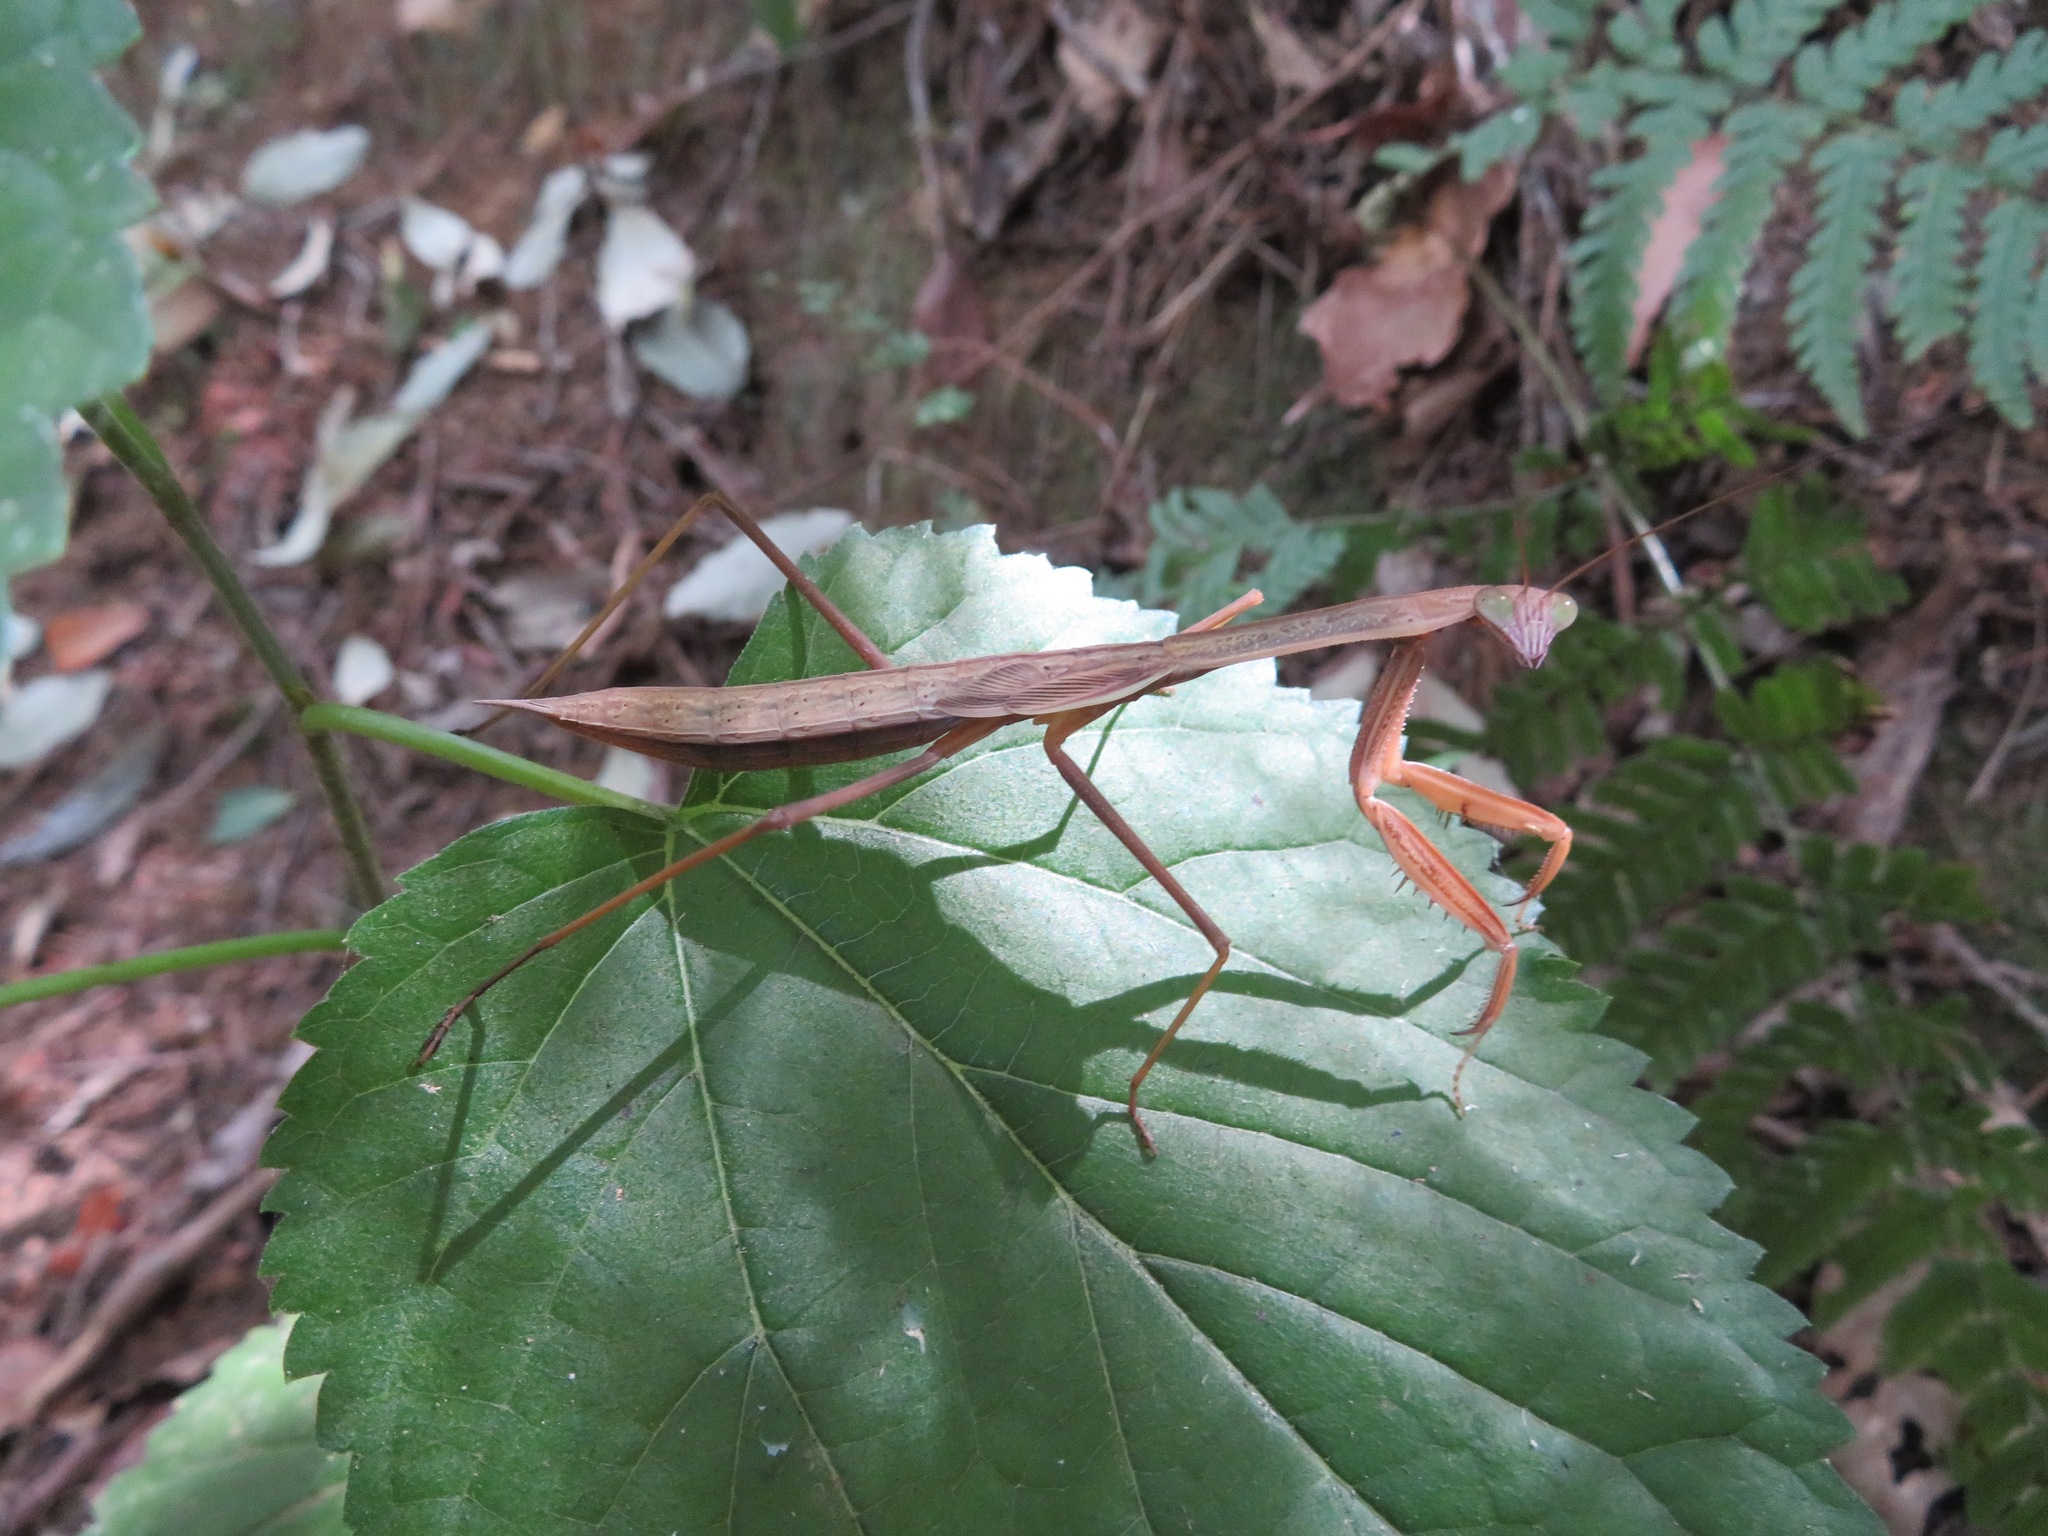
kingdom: Animalia
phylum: Arthropoda
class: Insecta
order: Mantodea
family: Mantidae
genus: Tenodera
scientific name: Tenodera sinensis
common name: Chinese mantis
